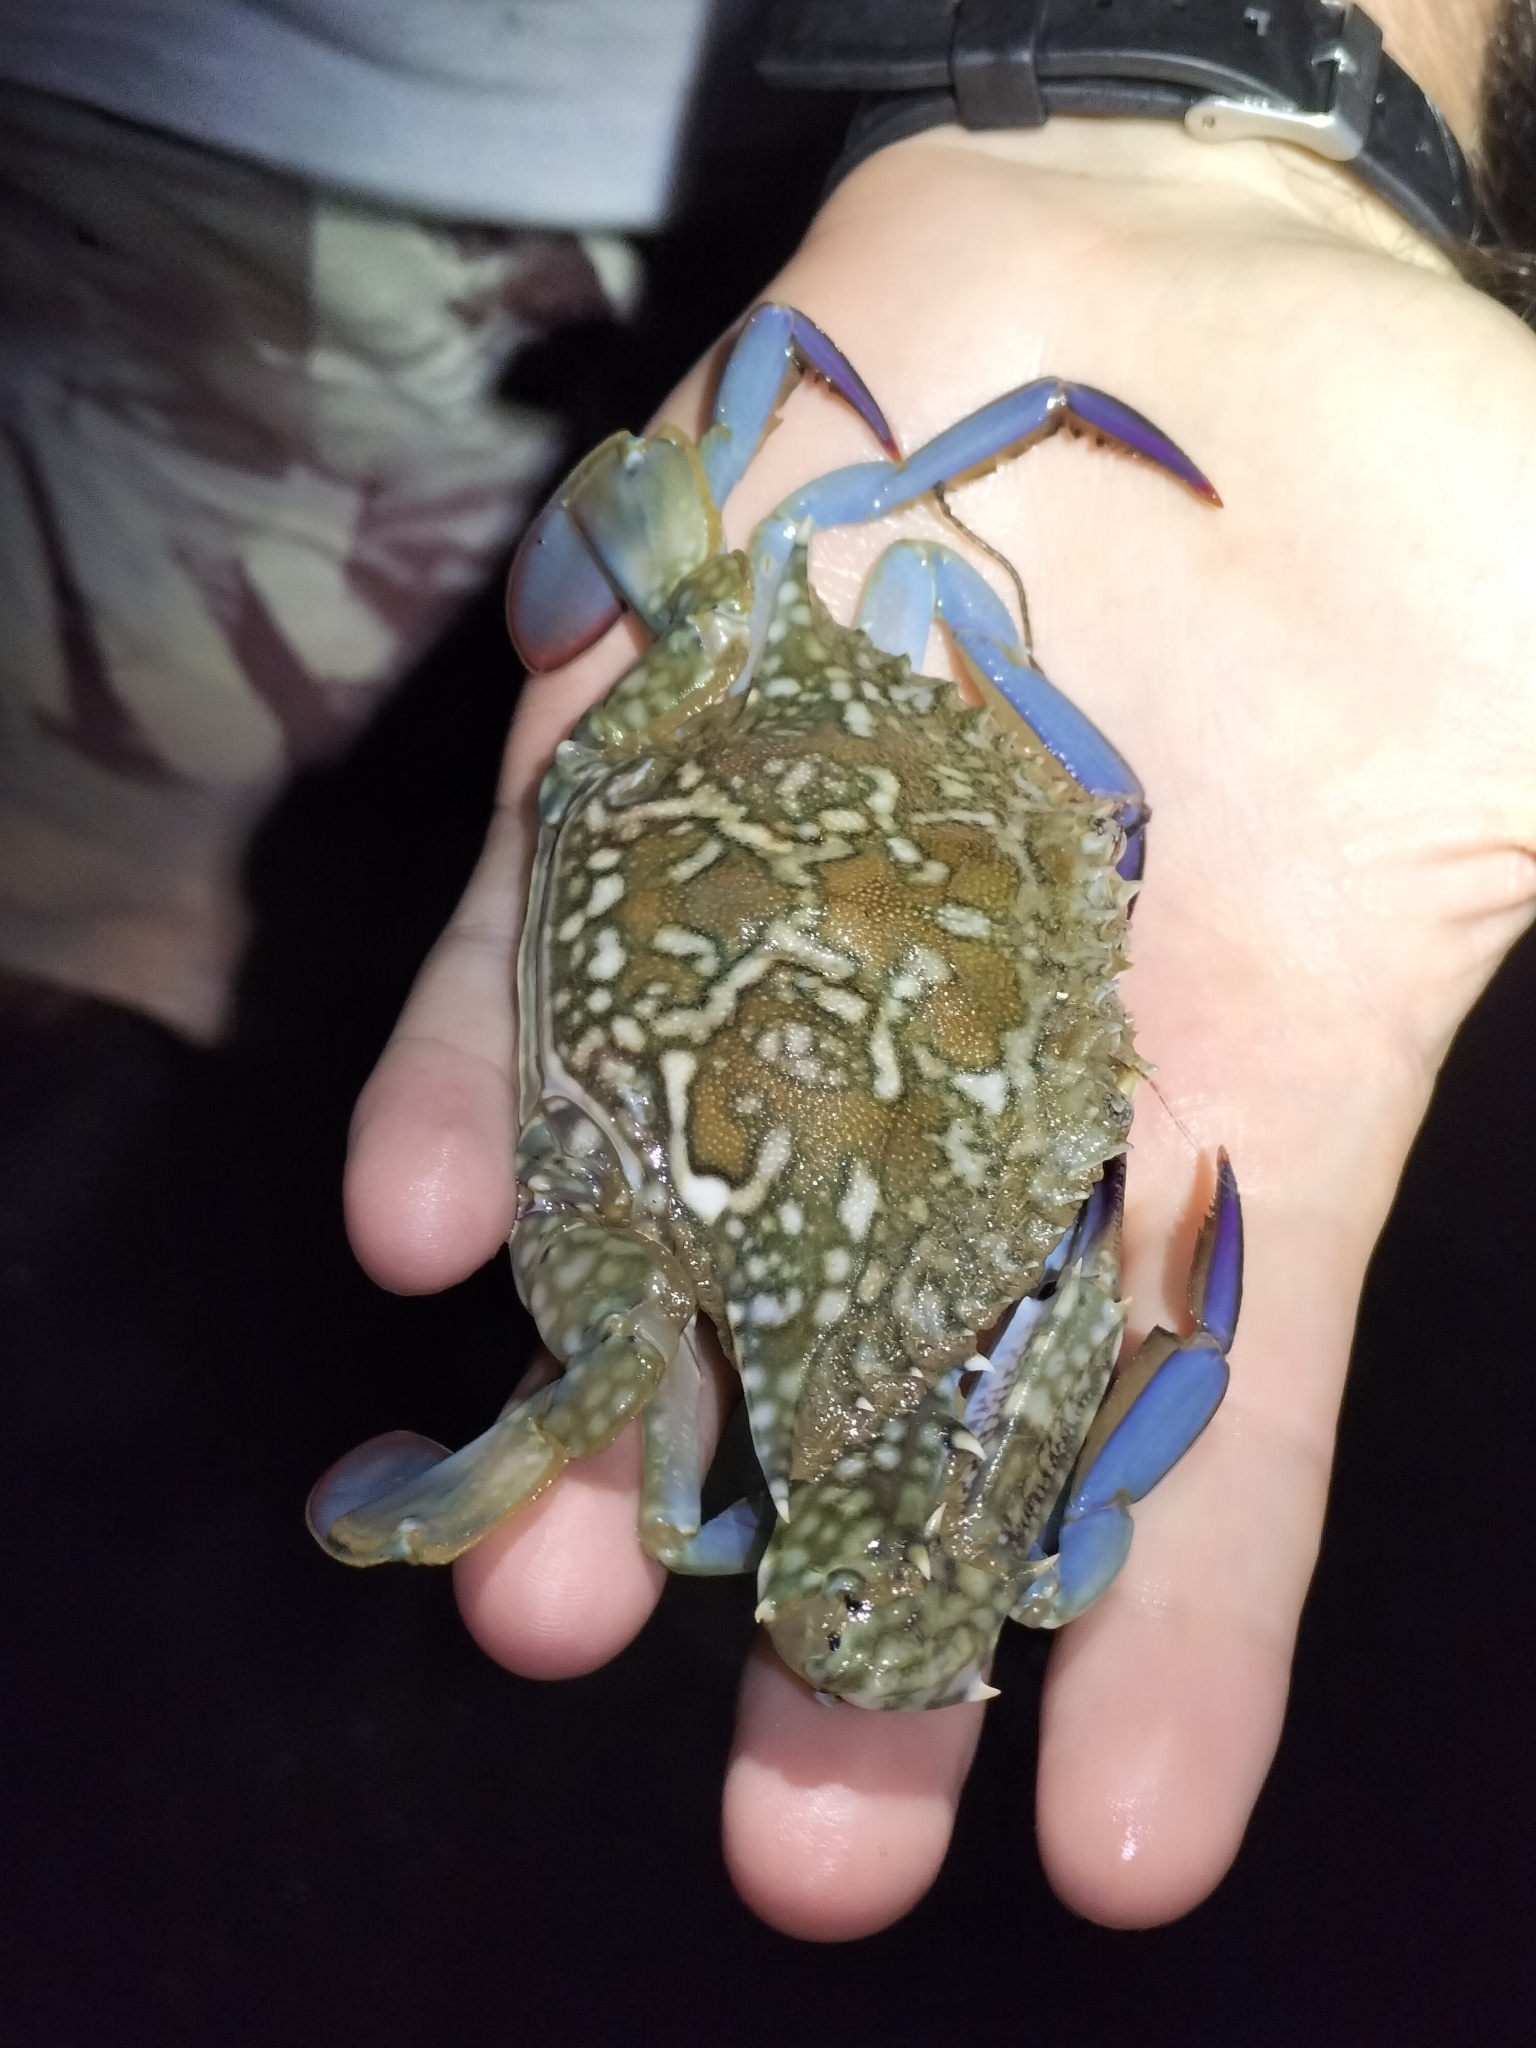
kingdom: Animalia
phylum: Arthropoda
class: Malacostraca
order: Decapoda
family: Portunidae
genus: Portunus
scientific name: Portunus armatus
